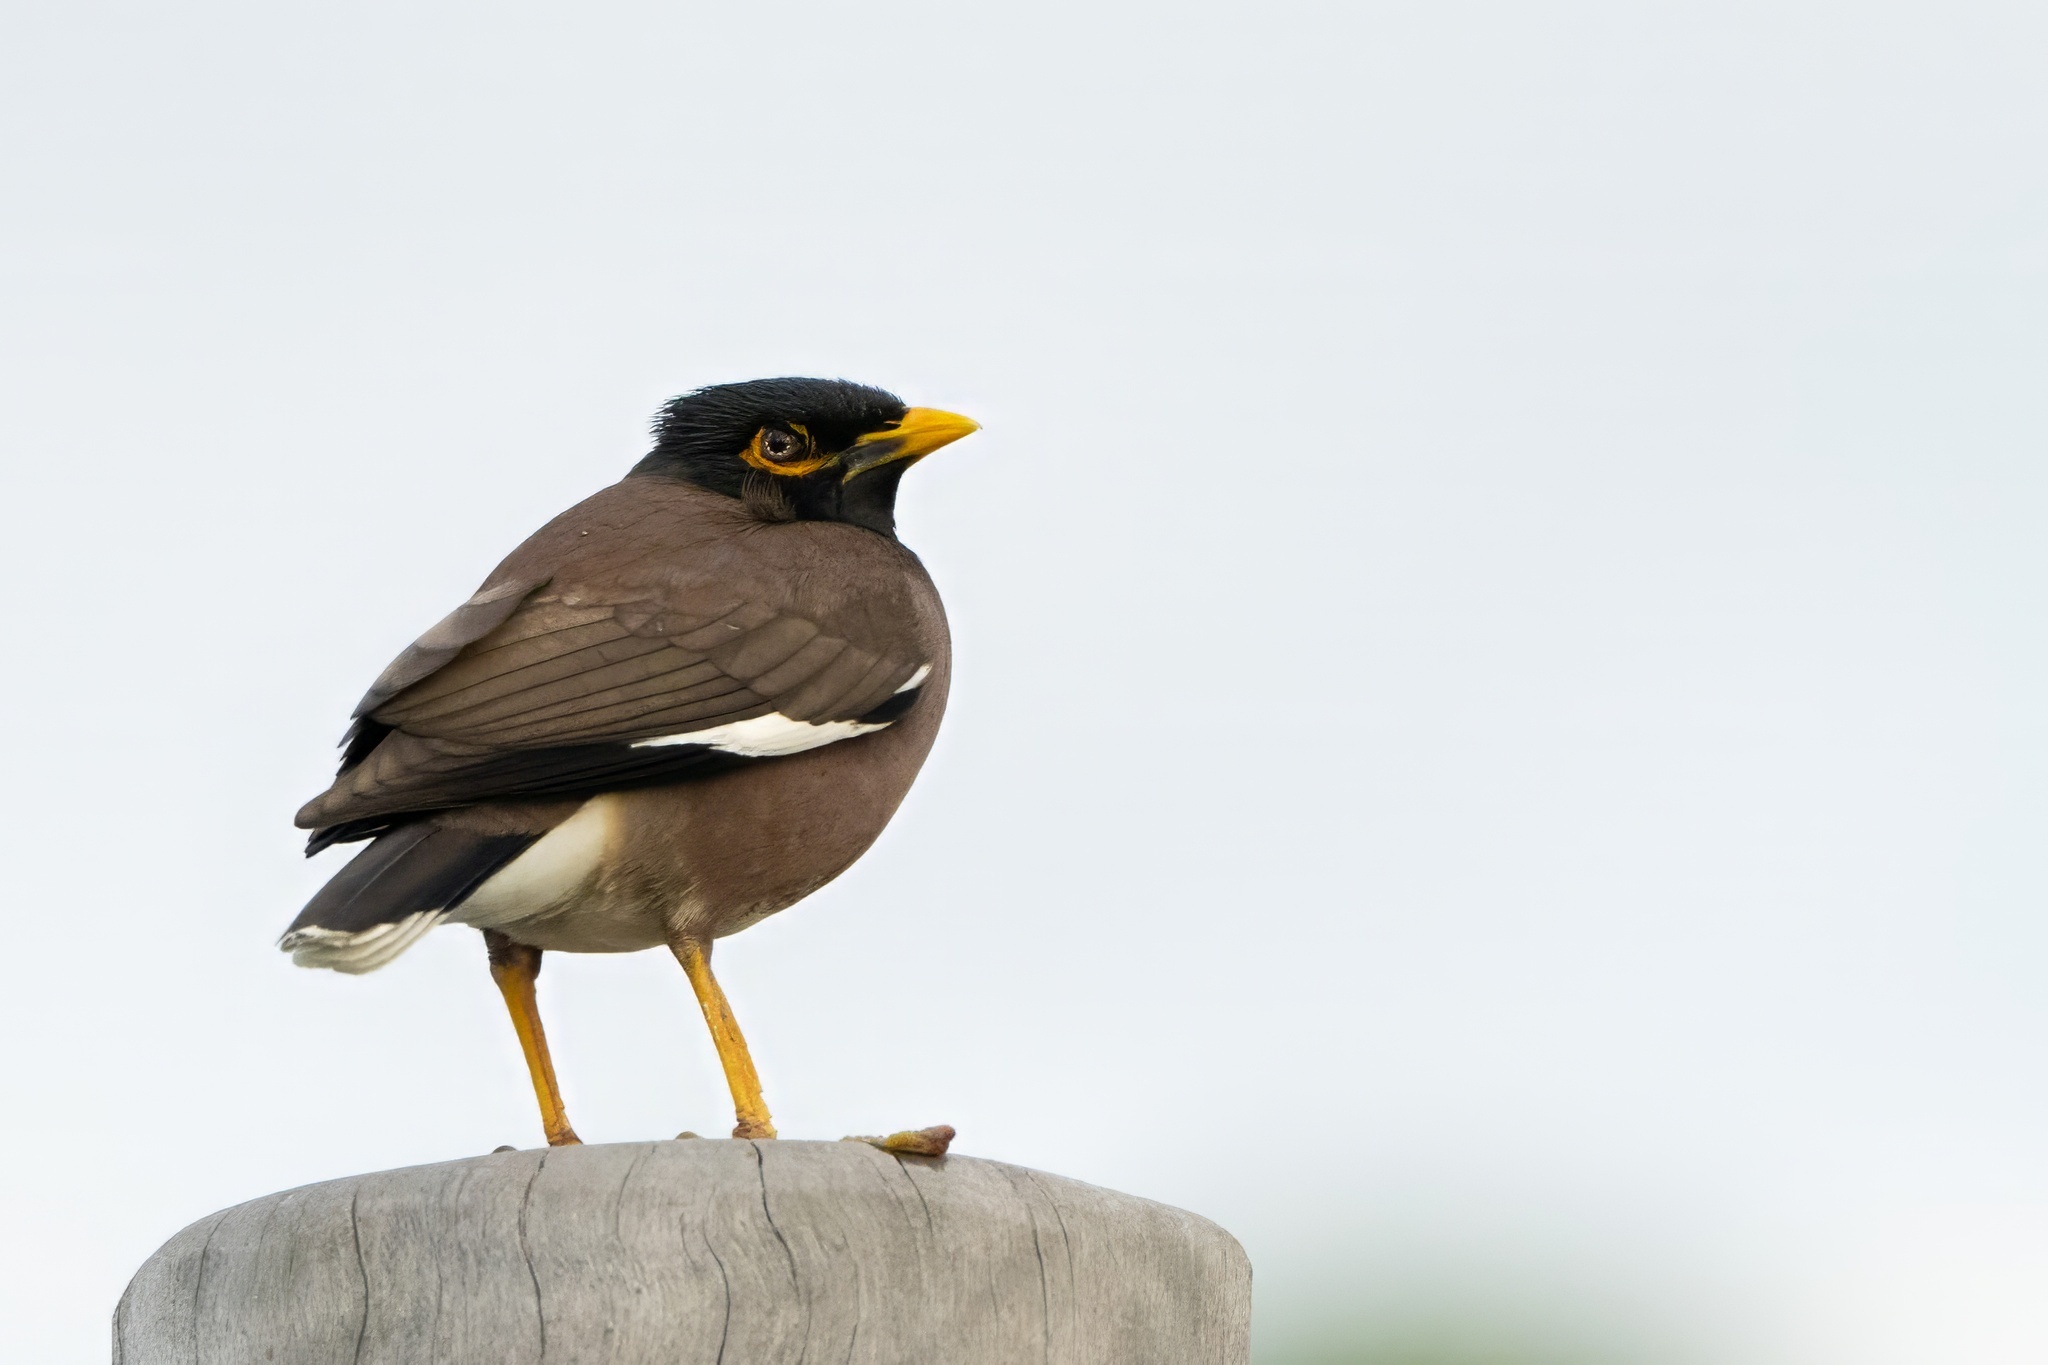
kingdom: Animalia
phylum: Chordata
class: Aves
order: Passeriformes
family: Sturnidae
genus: Acridotheres
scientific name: Acridotheres tristis
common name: Common myna
